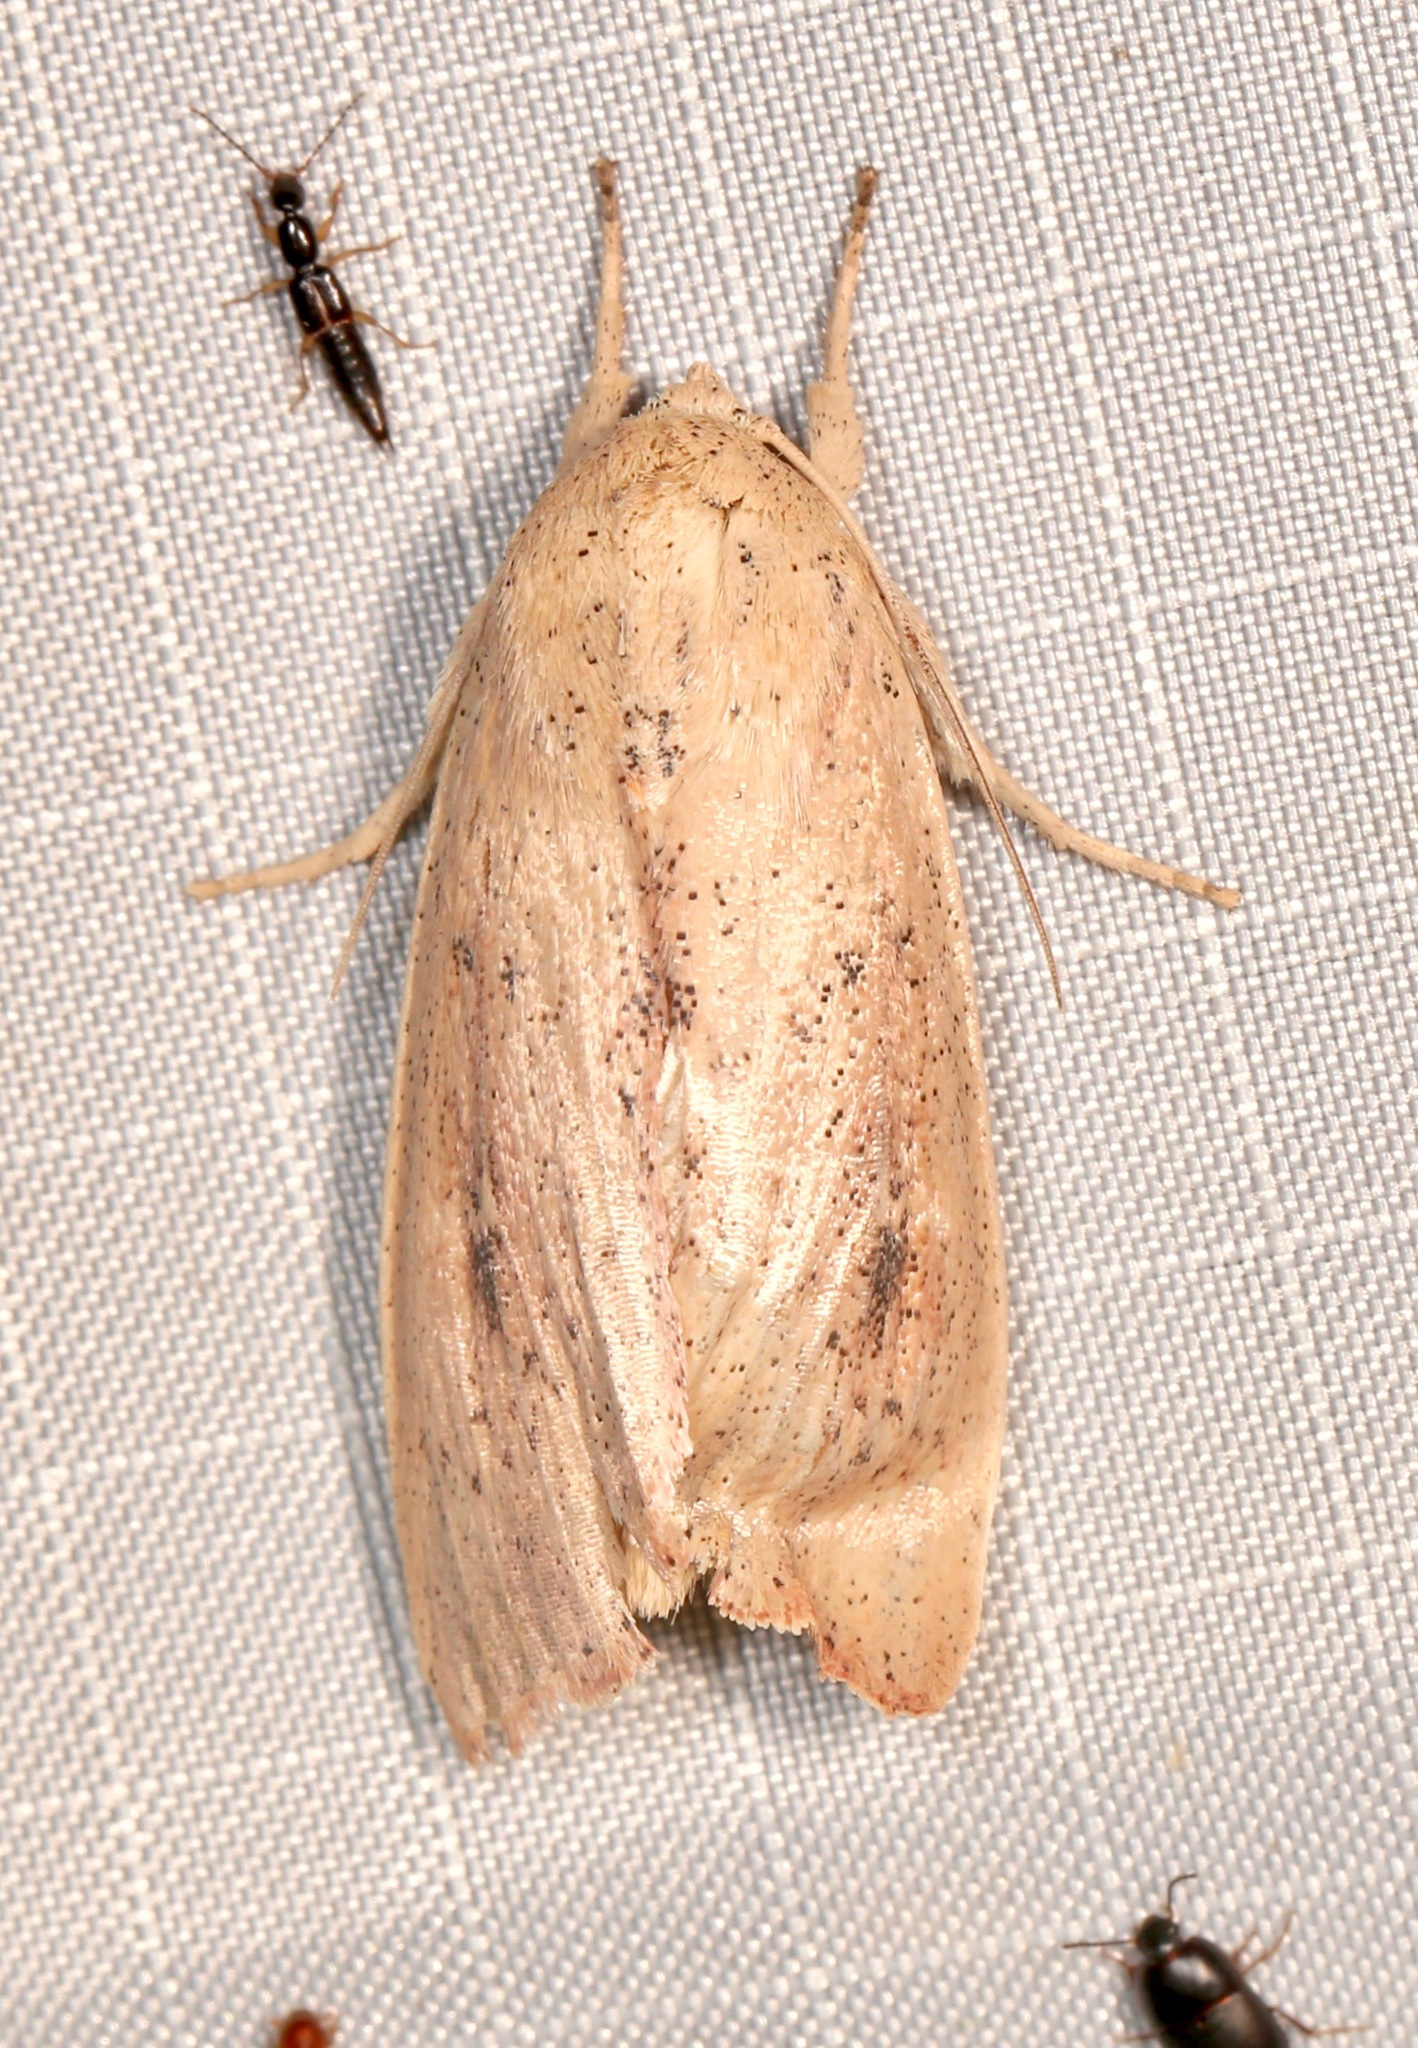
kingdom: Animalia
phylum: Arthropoda
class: Insecta
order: Lepidoptera
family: Noctuidae
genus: Leucania
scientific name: Leucania pilipalpis
